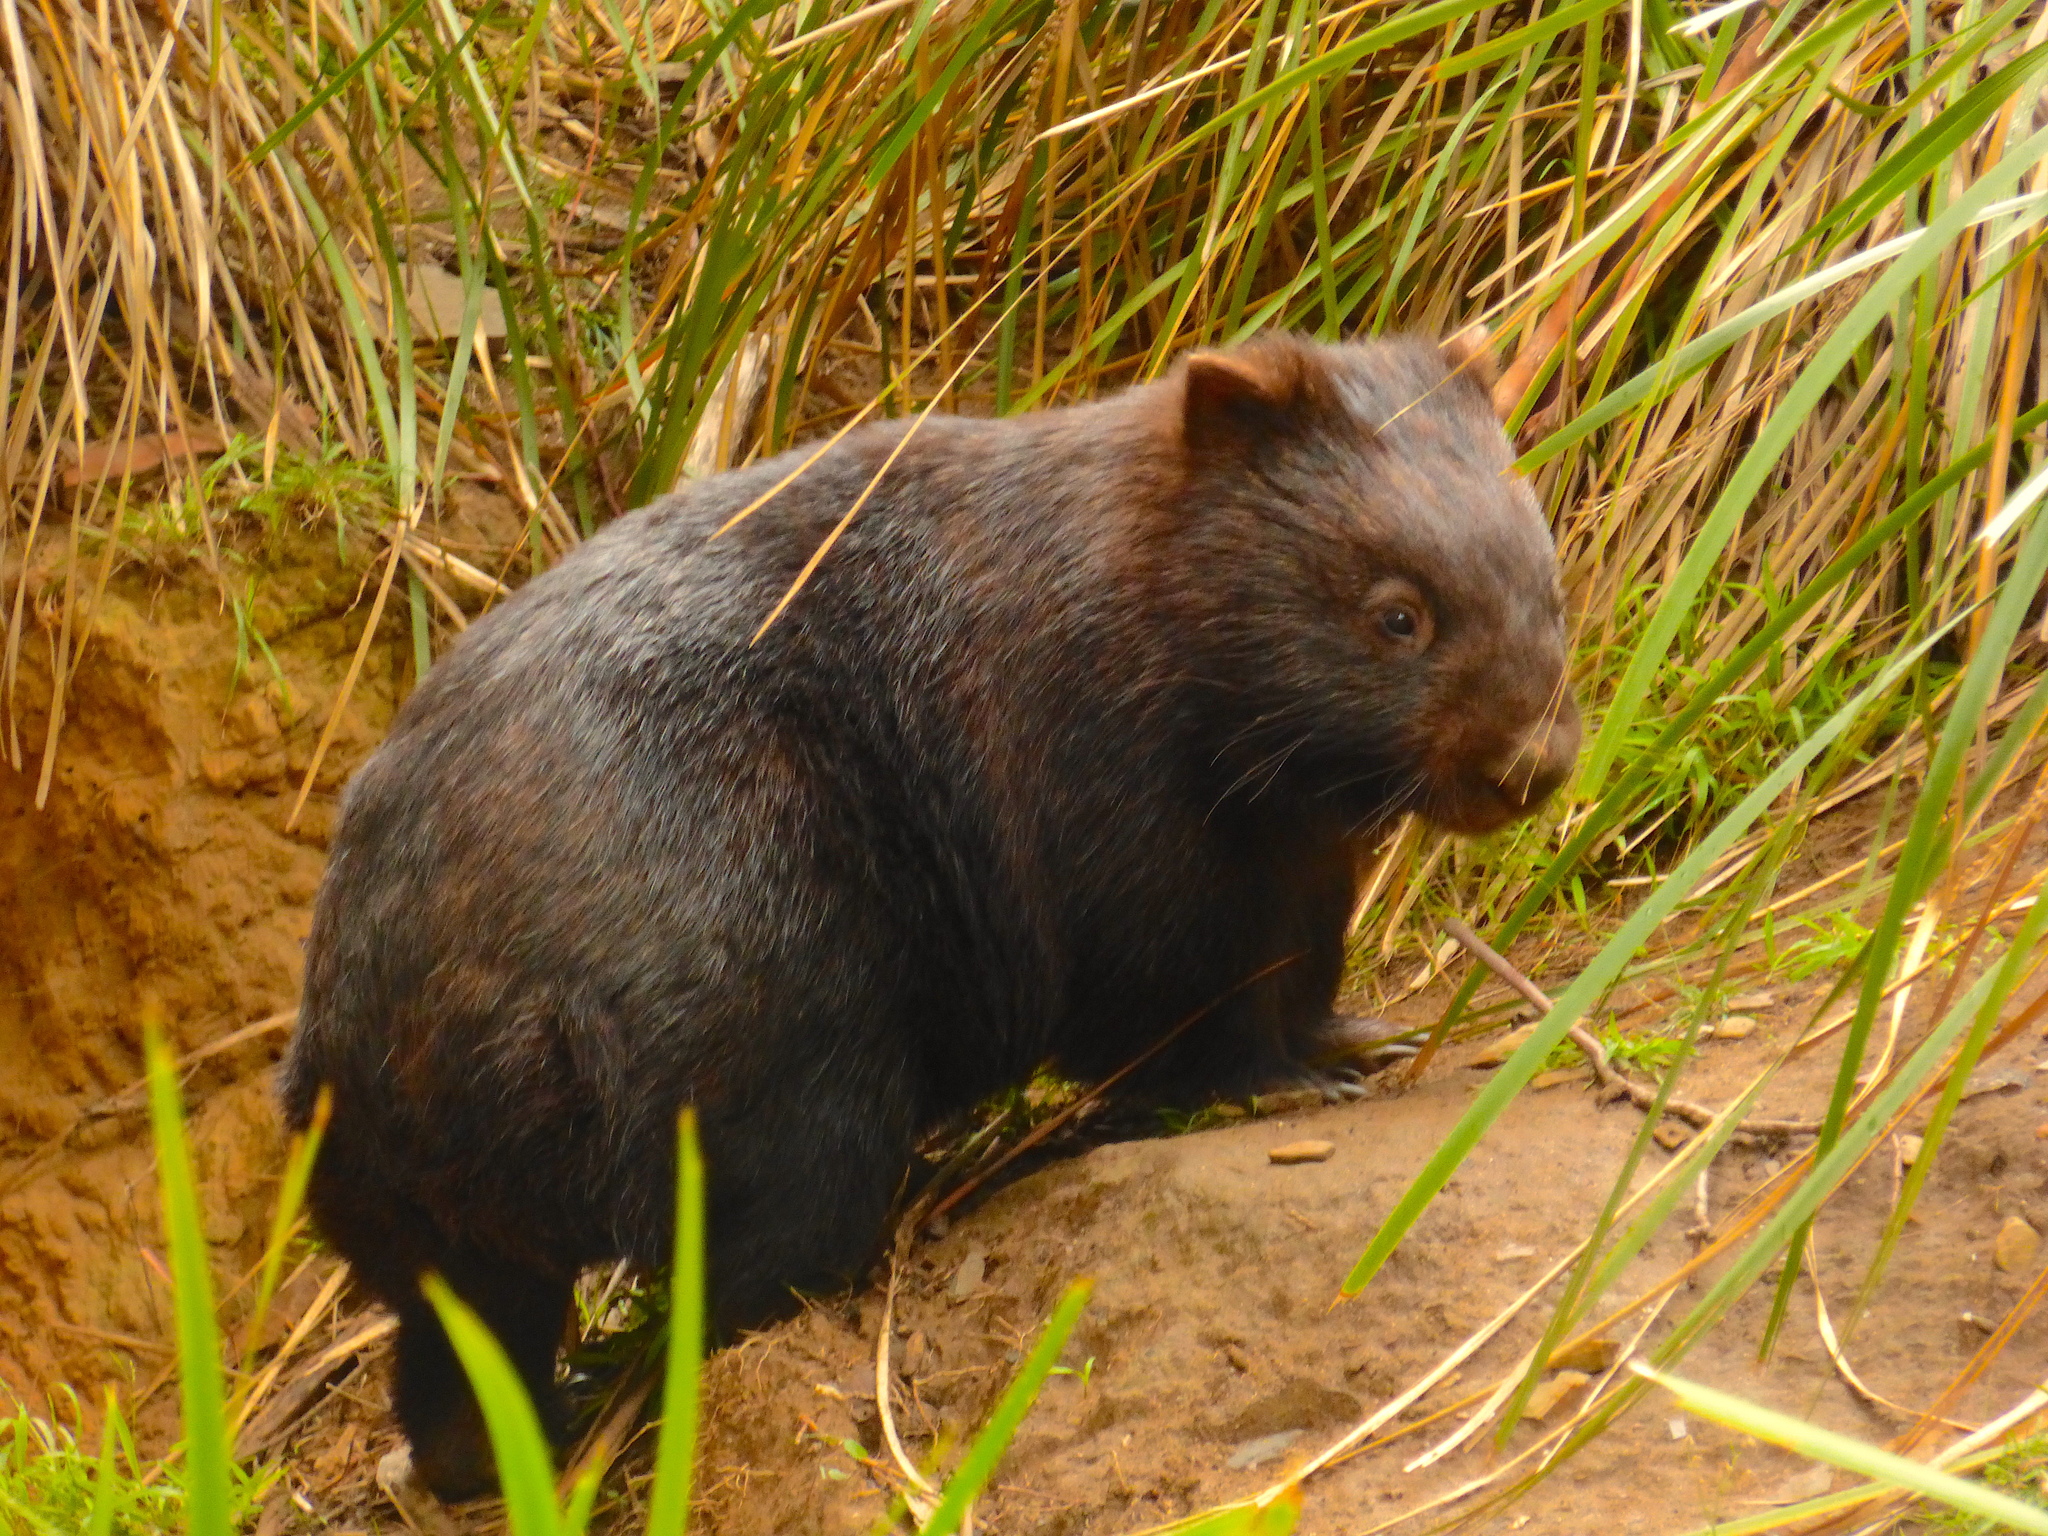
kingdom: Animalia
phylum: Chordata
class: Mammalia
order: Diprotodontia
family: Vombatidae
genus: Vombatus
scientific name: Vombatus ursinus
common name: Common wombat
